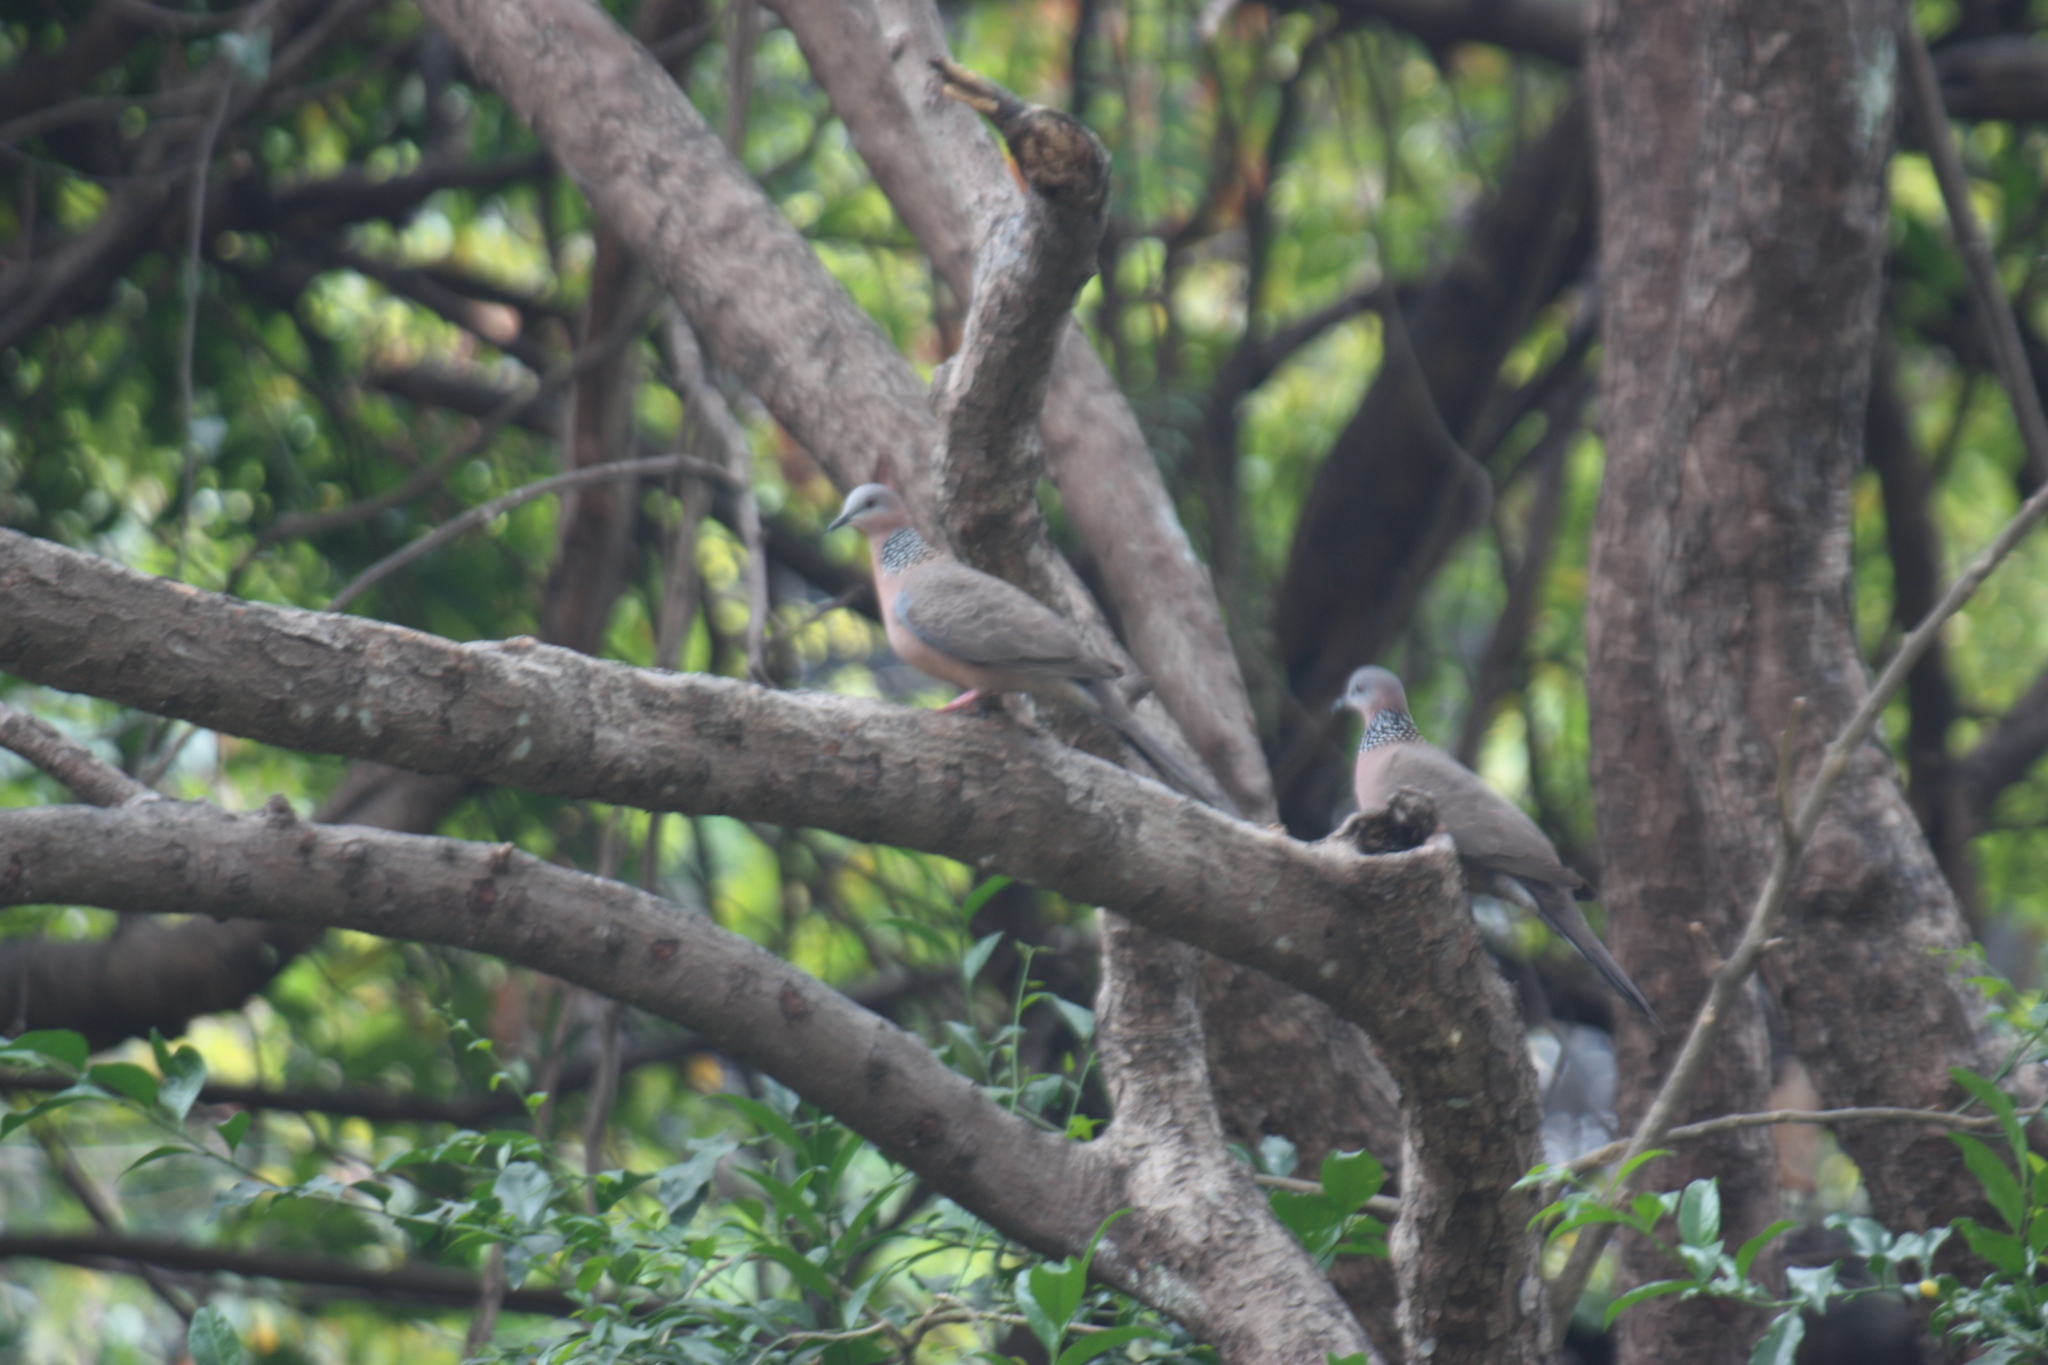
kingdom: Animalia
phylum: Chordata
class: Aves
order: Columbiformes
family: Columbidae
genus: Spilopelia
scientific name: Spilopelia chinensis
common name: Spotted dove
